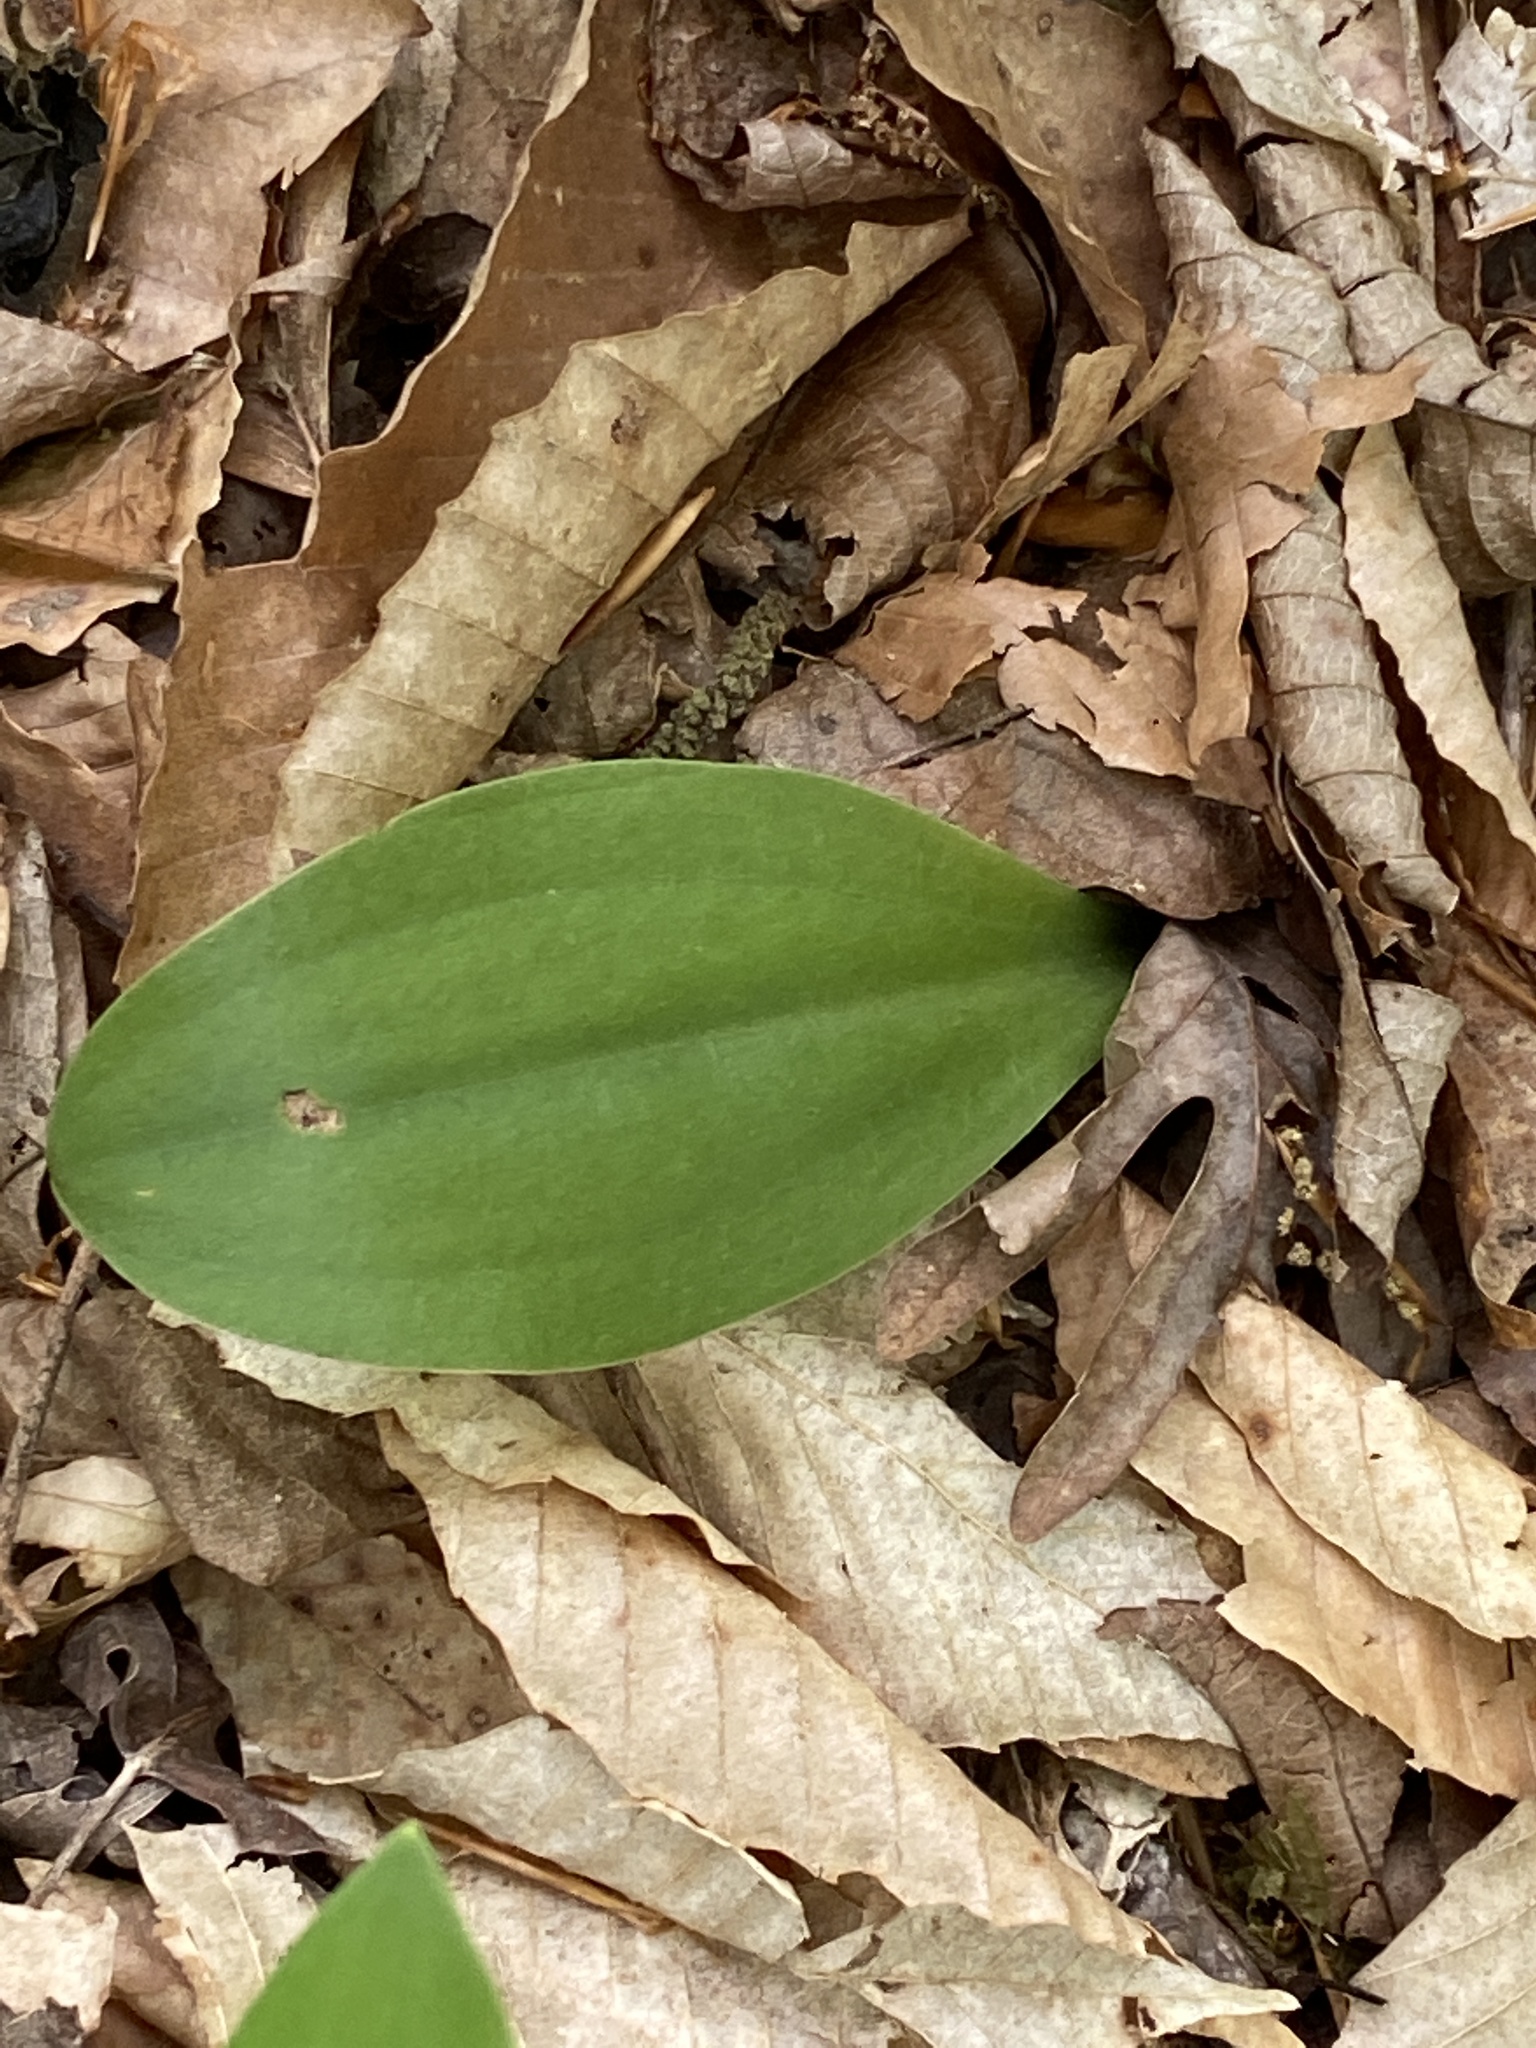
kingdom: Plantae
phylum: Tracheophyta
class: Liliopsida
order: Liliales
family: Melanthiaceae
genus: Chamaelirium
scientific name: Chamaelirium luteum
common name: Fairy-wand
